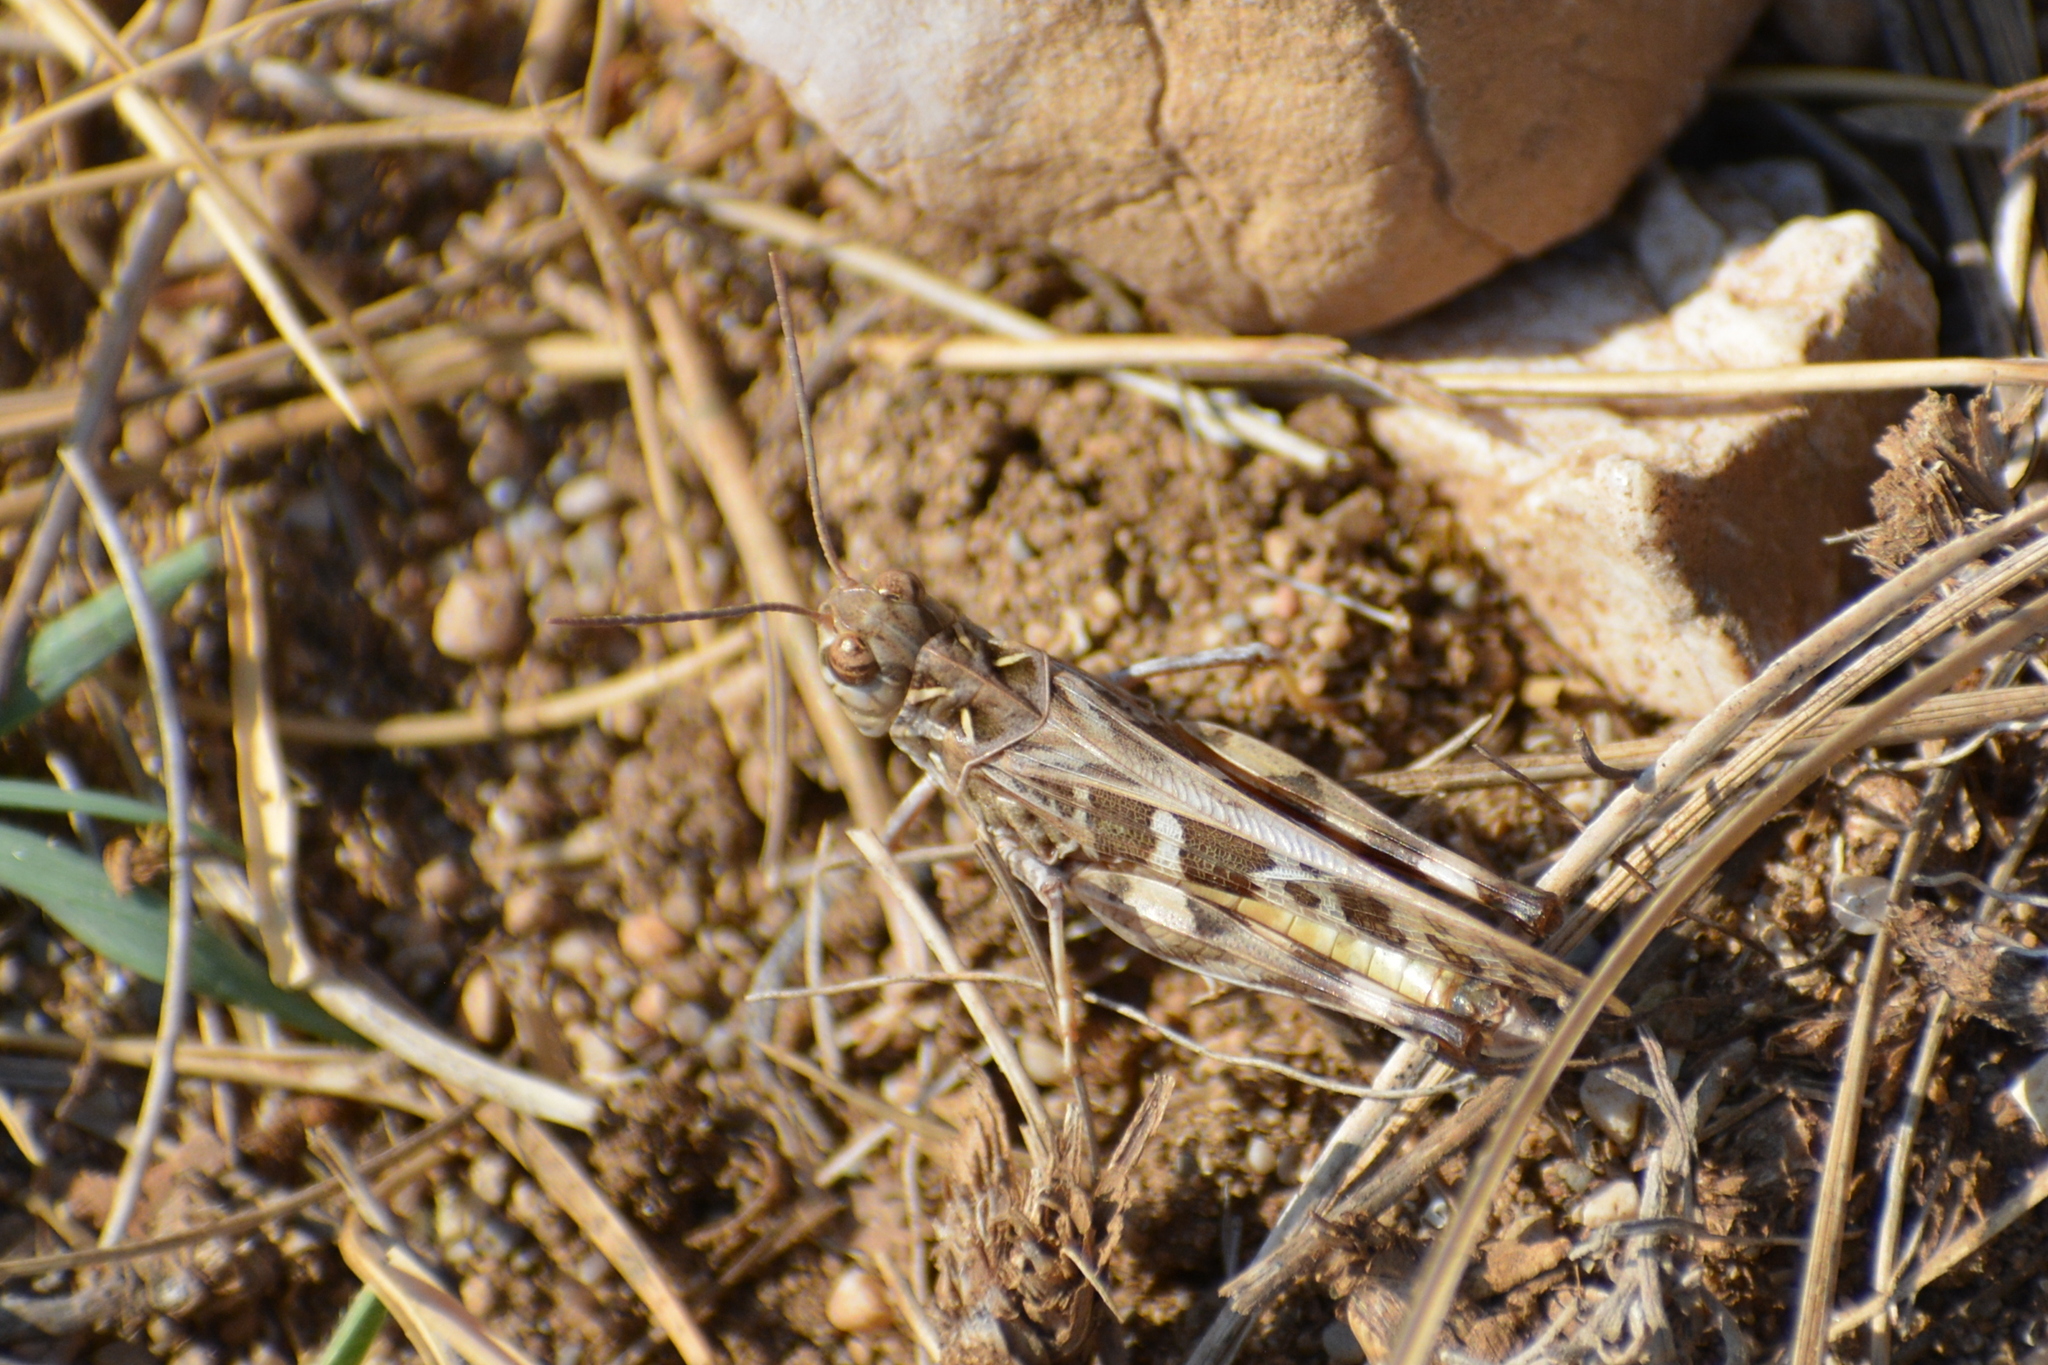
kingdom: Animalia
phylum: Arthropoda
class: Insecta
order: Orthoptera
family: Acrididae
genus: Oedaleus
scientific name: Oedaleus decorus
